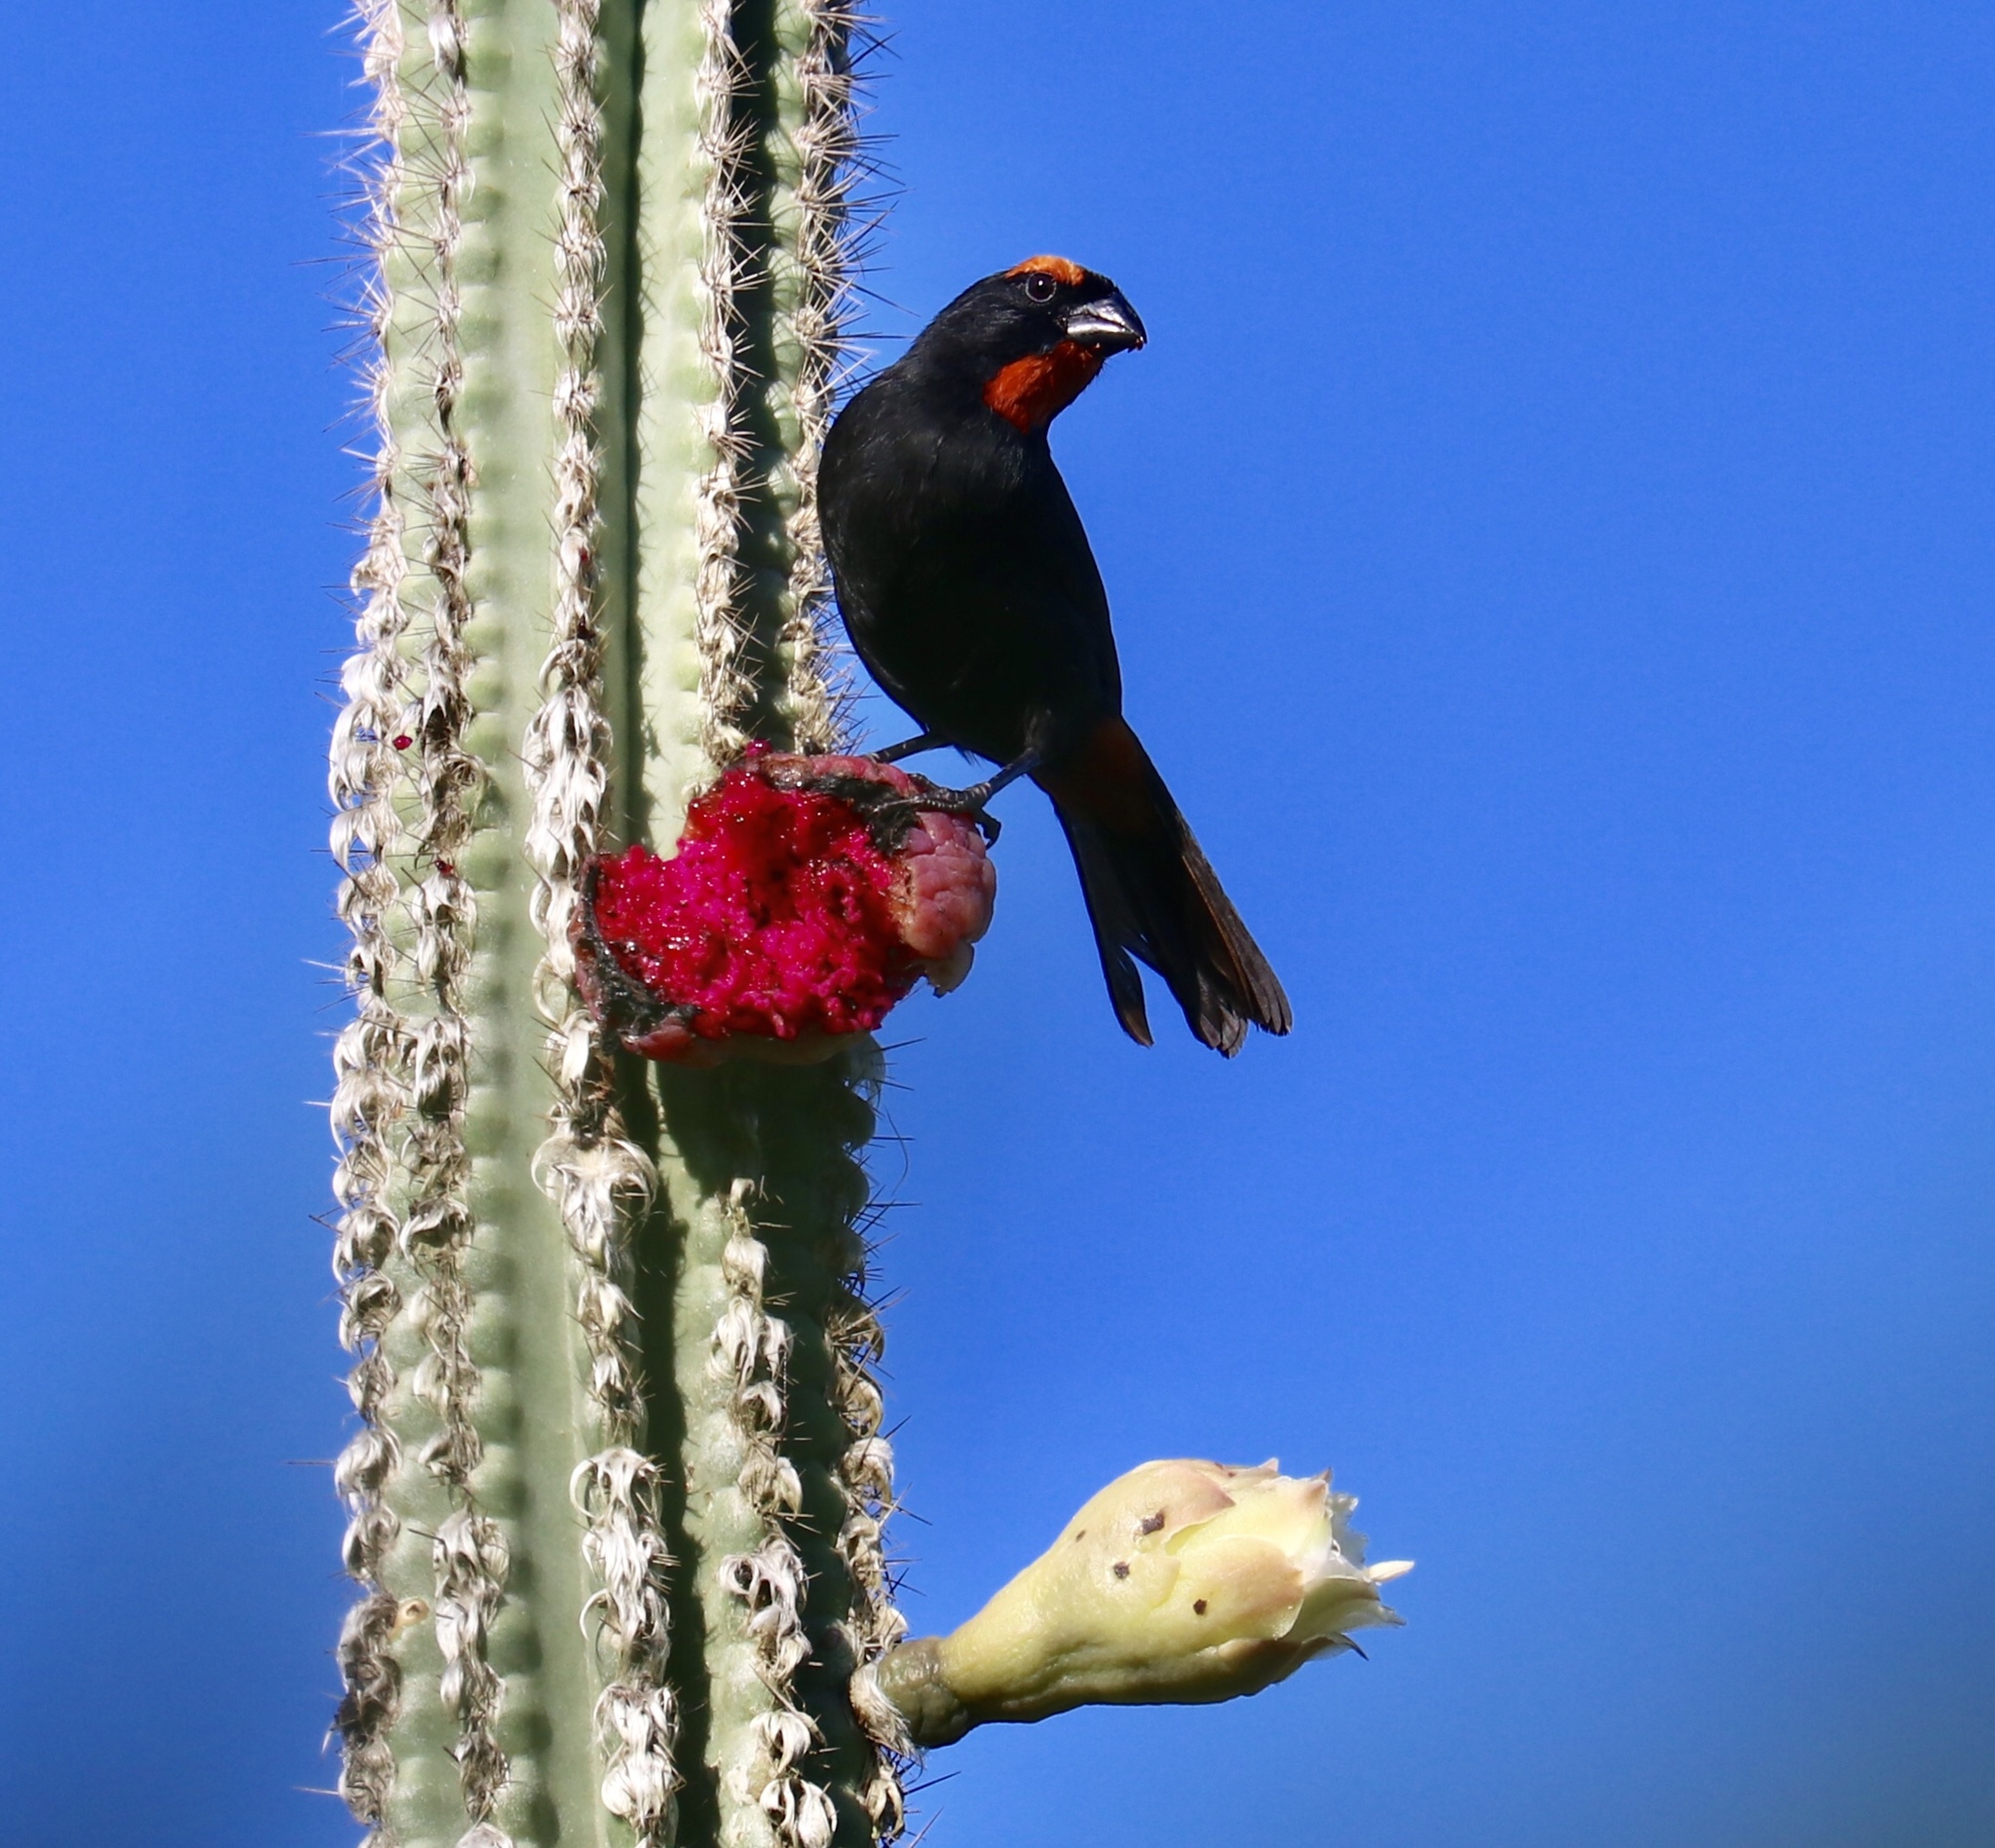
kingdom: Animalia
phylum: Chordata
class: Aves
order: Passeriformes
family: Thraupidae
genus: Melopyrrha
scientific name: Melopyrrha violacea
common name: Greater antillean bullfinch
